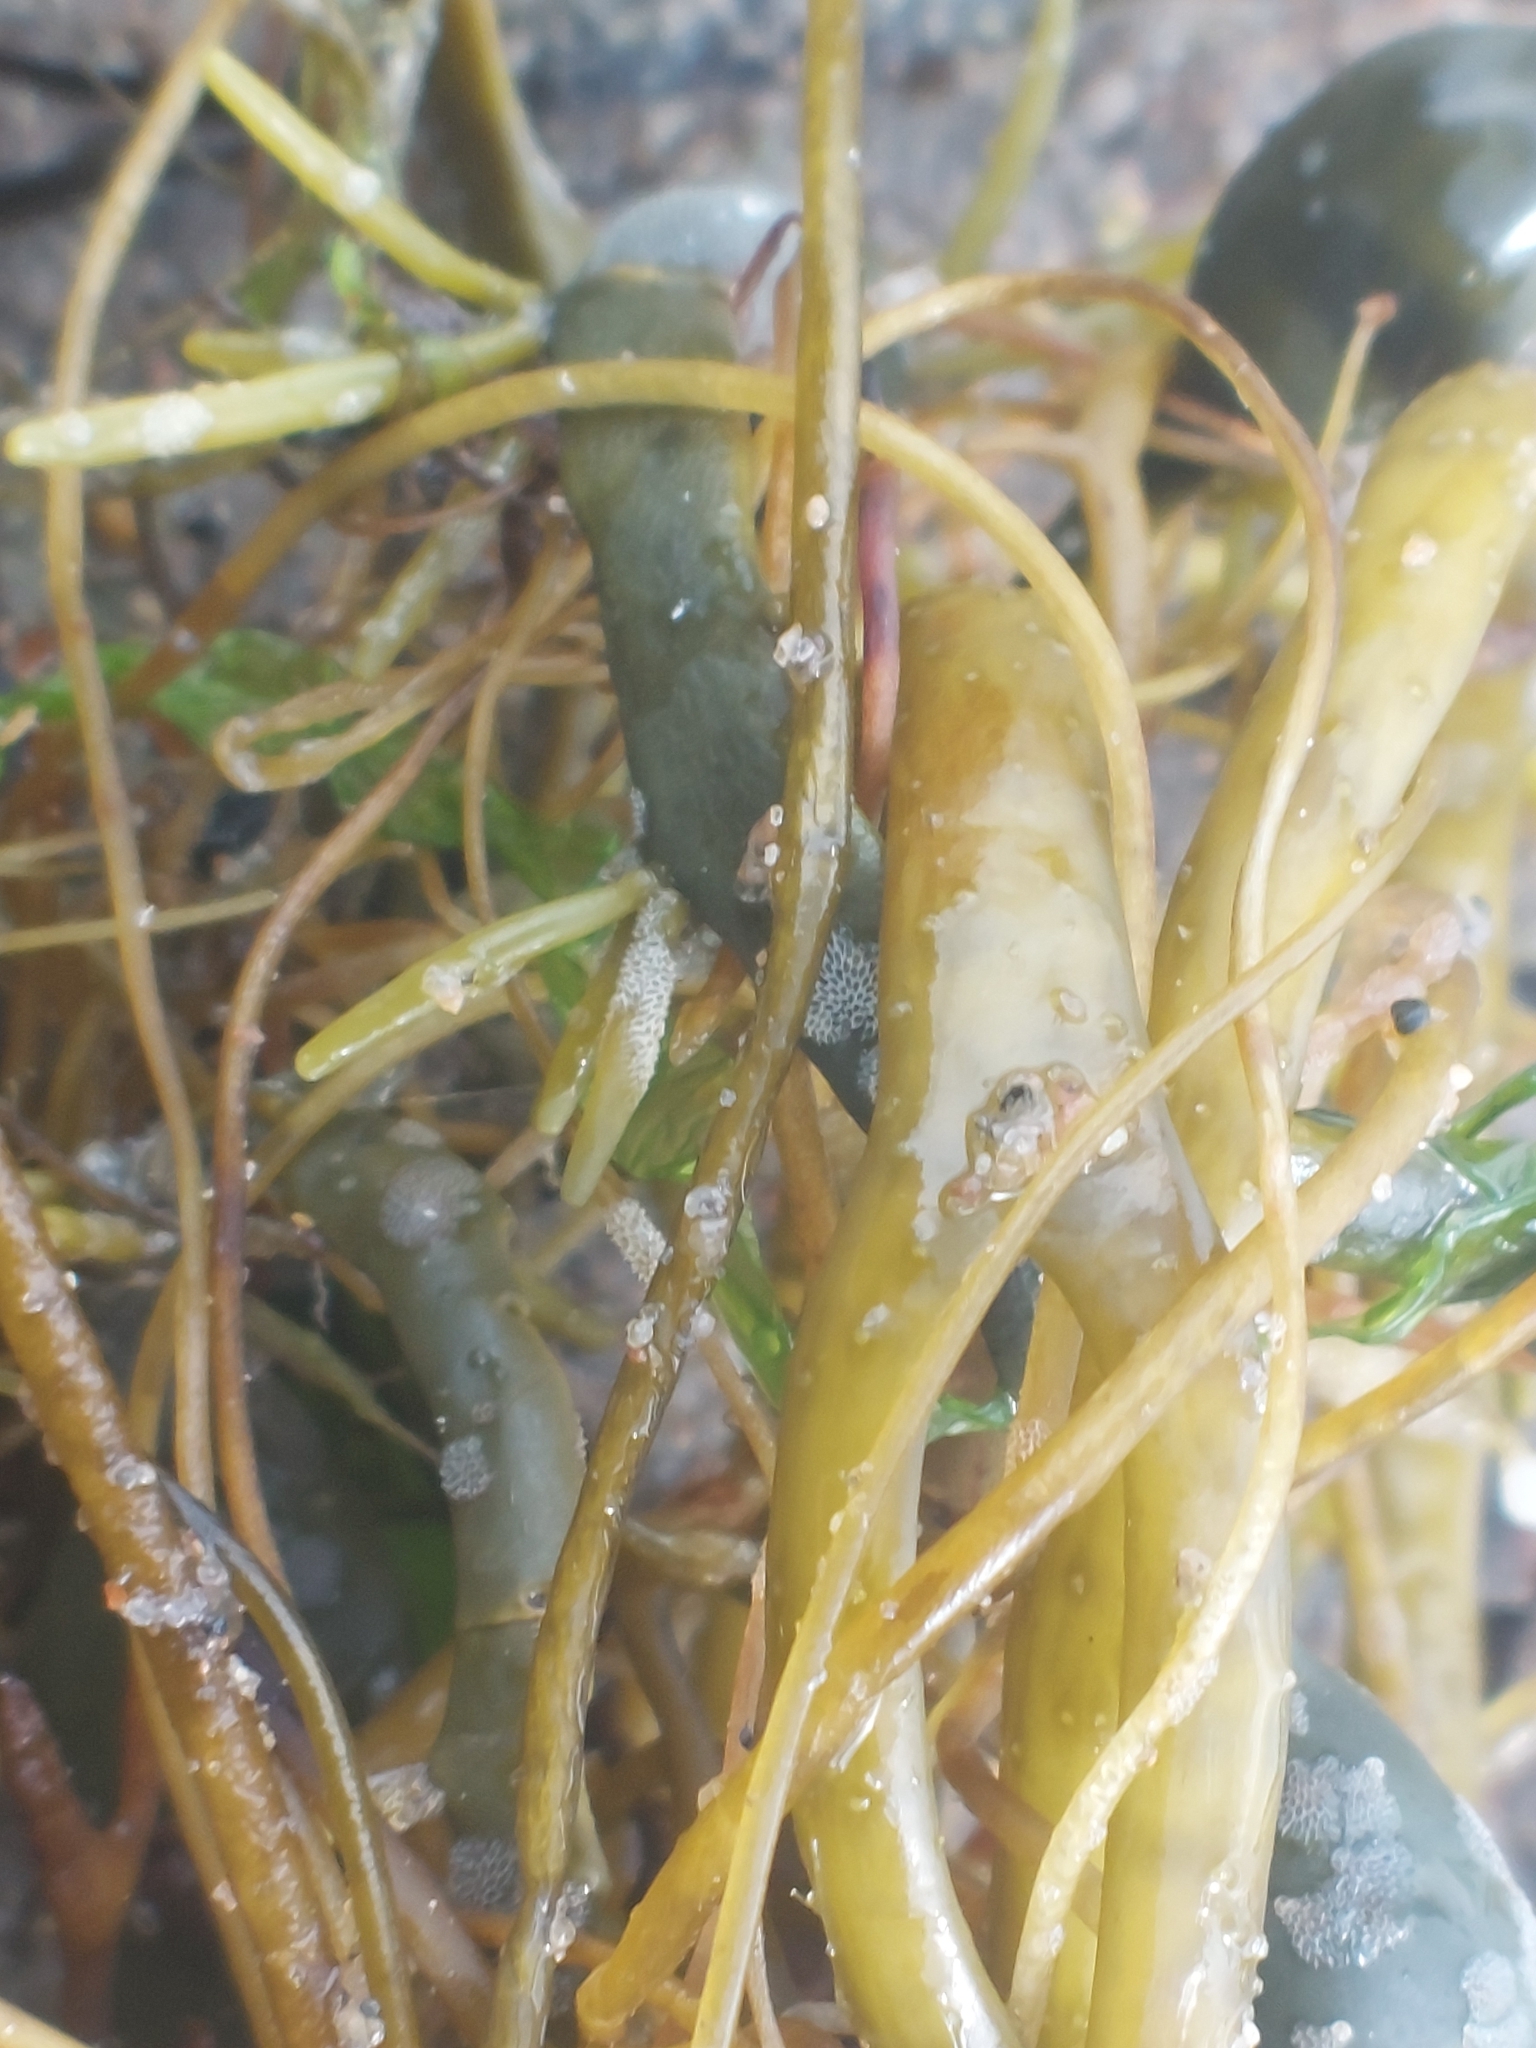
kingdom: Chromista
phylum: Ochrophyta
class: Phaeophyceae
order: Fucales
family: Fucaceae
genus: Ascophyllum
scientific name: Ascophyllum nodosum
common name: Knotted wrack
